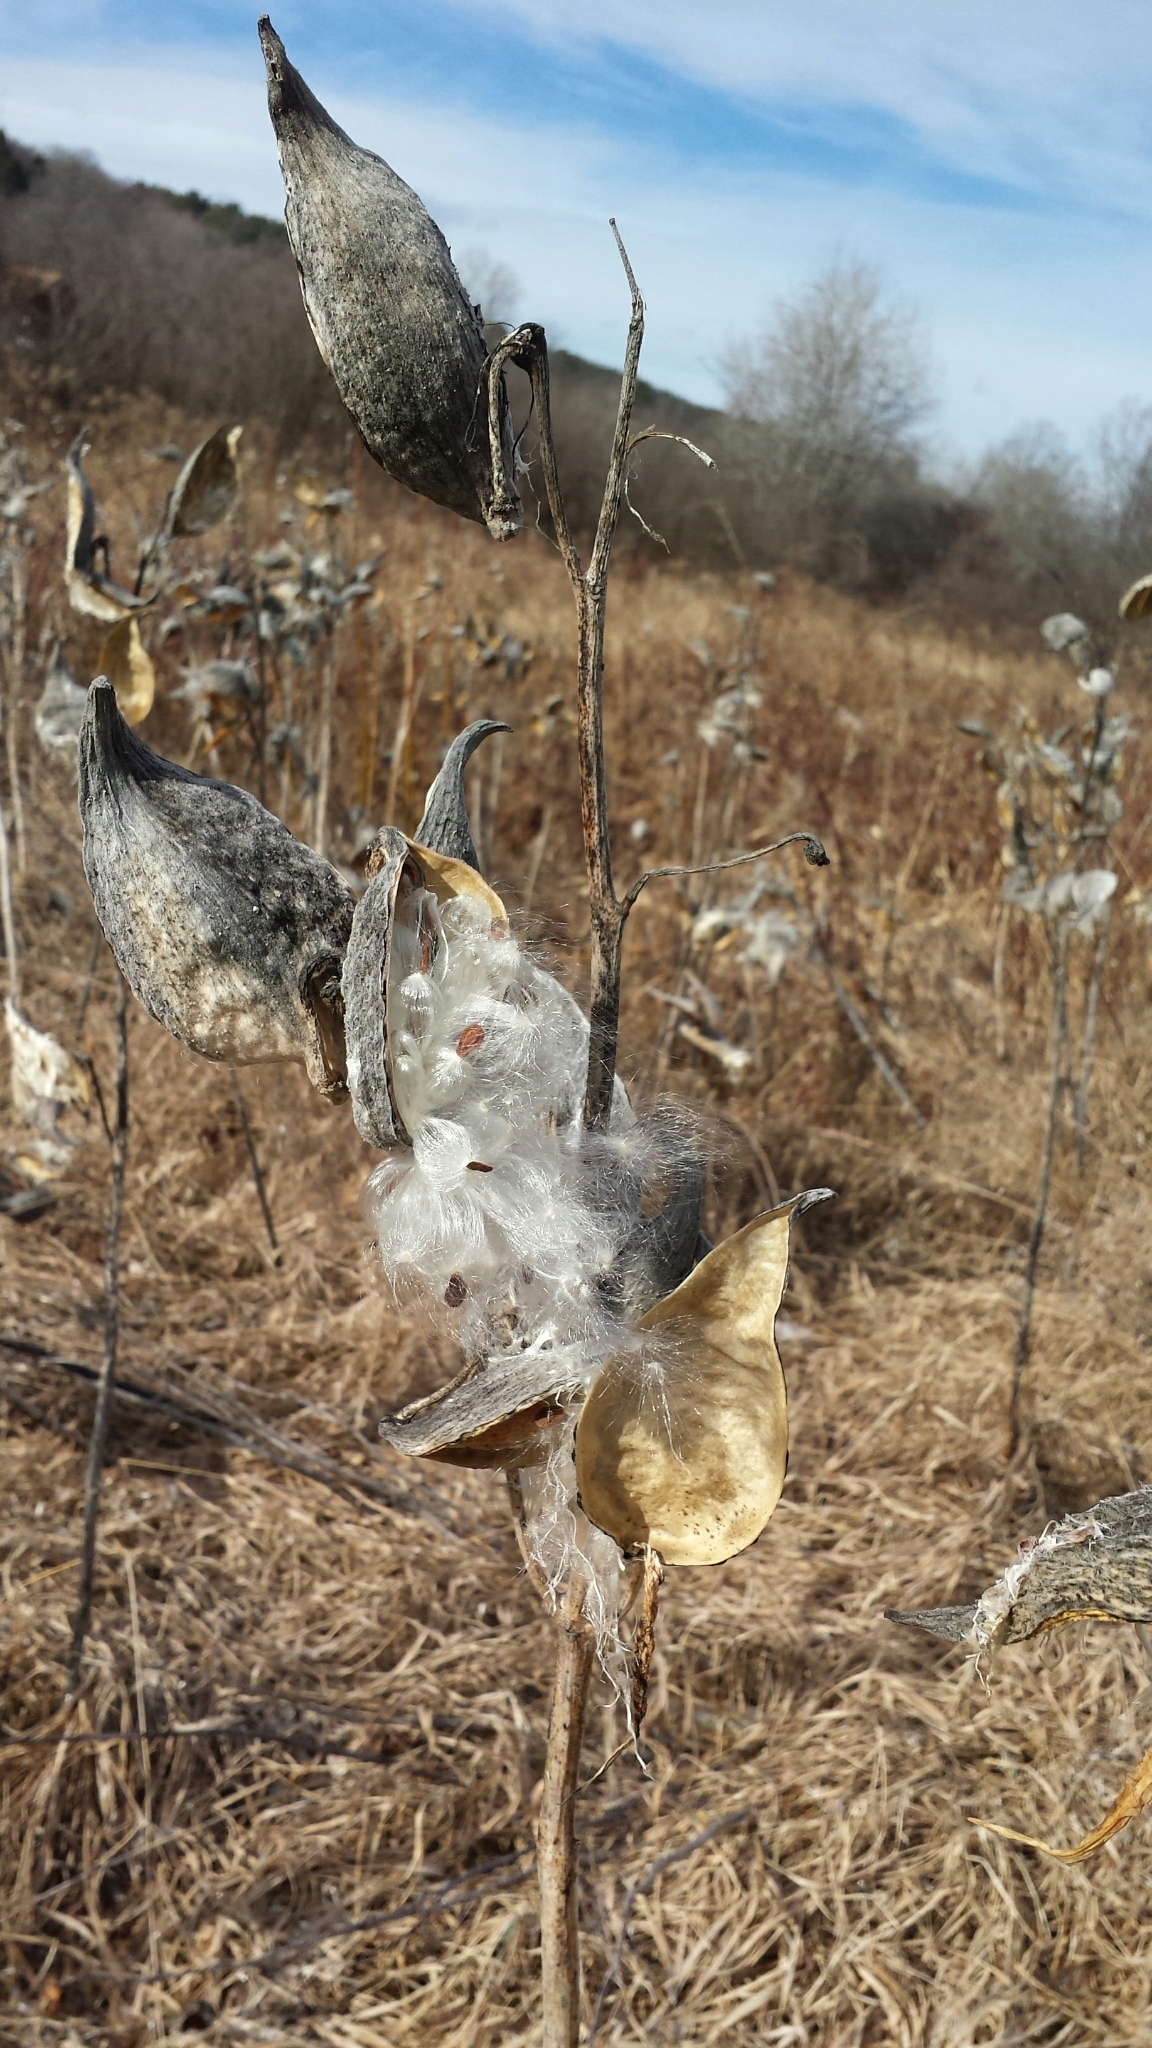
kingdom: Plantae
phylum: Tracheophyta
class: Magnoliopsida
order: Gentianales
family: Apocynaceae
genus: Asclepias
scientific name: Asclepias syriaca
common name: Common milkweed
